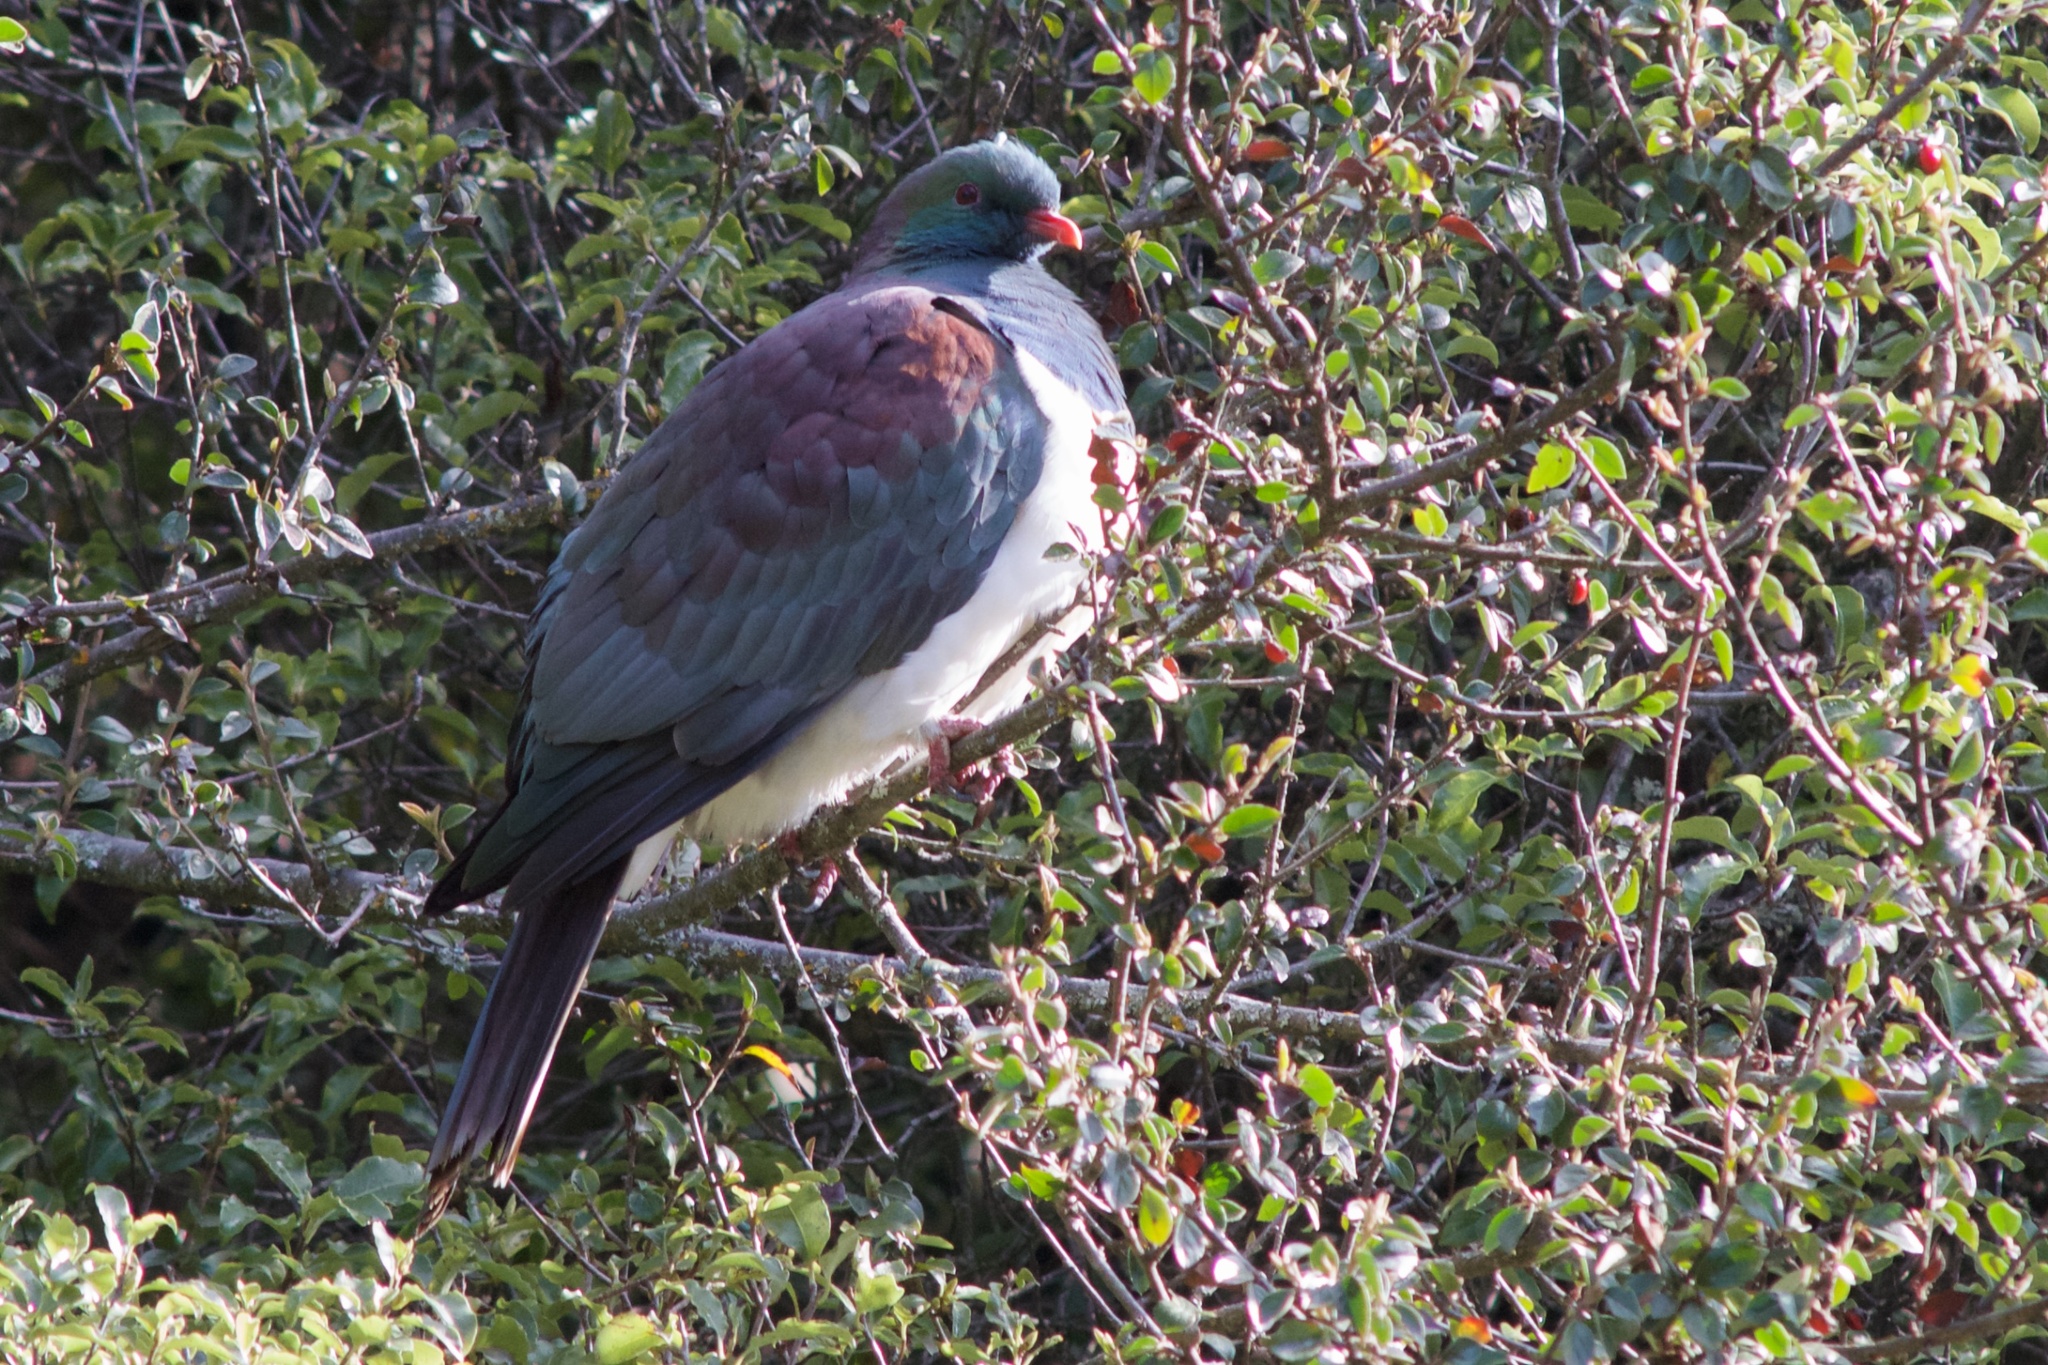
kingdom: Animalia
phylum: Chordata
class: Aves
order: Columbiformes
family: Columbidae
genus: Hemiphaga
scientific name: Hemiphaga novaeseelandiae
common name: New zealand pigeon
